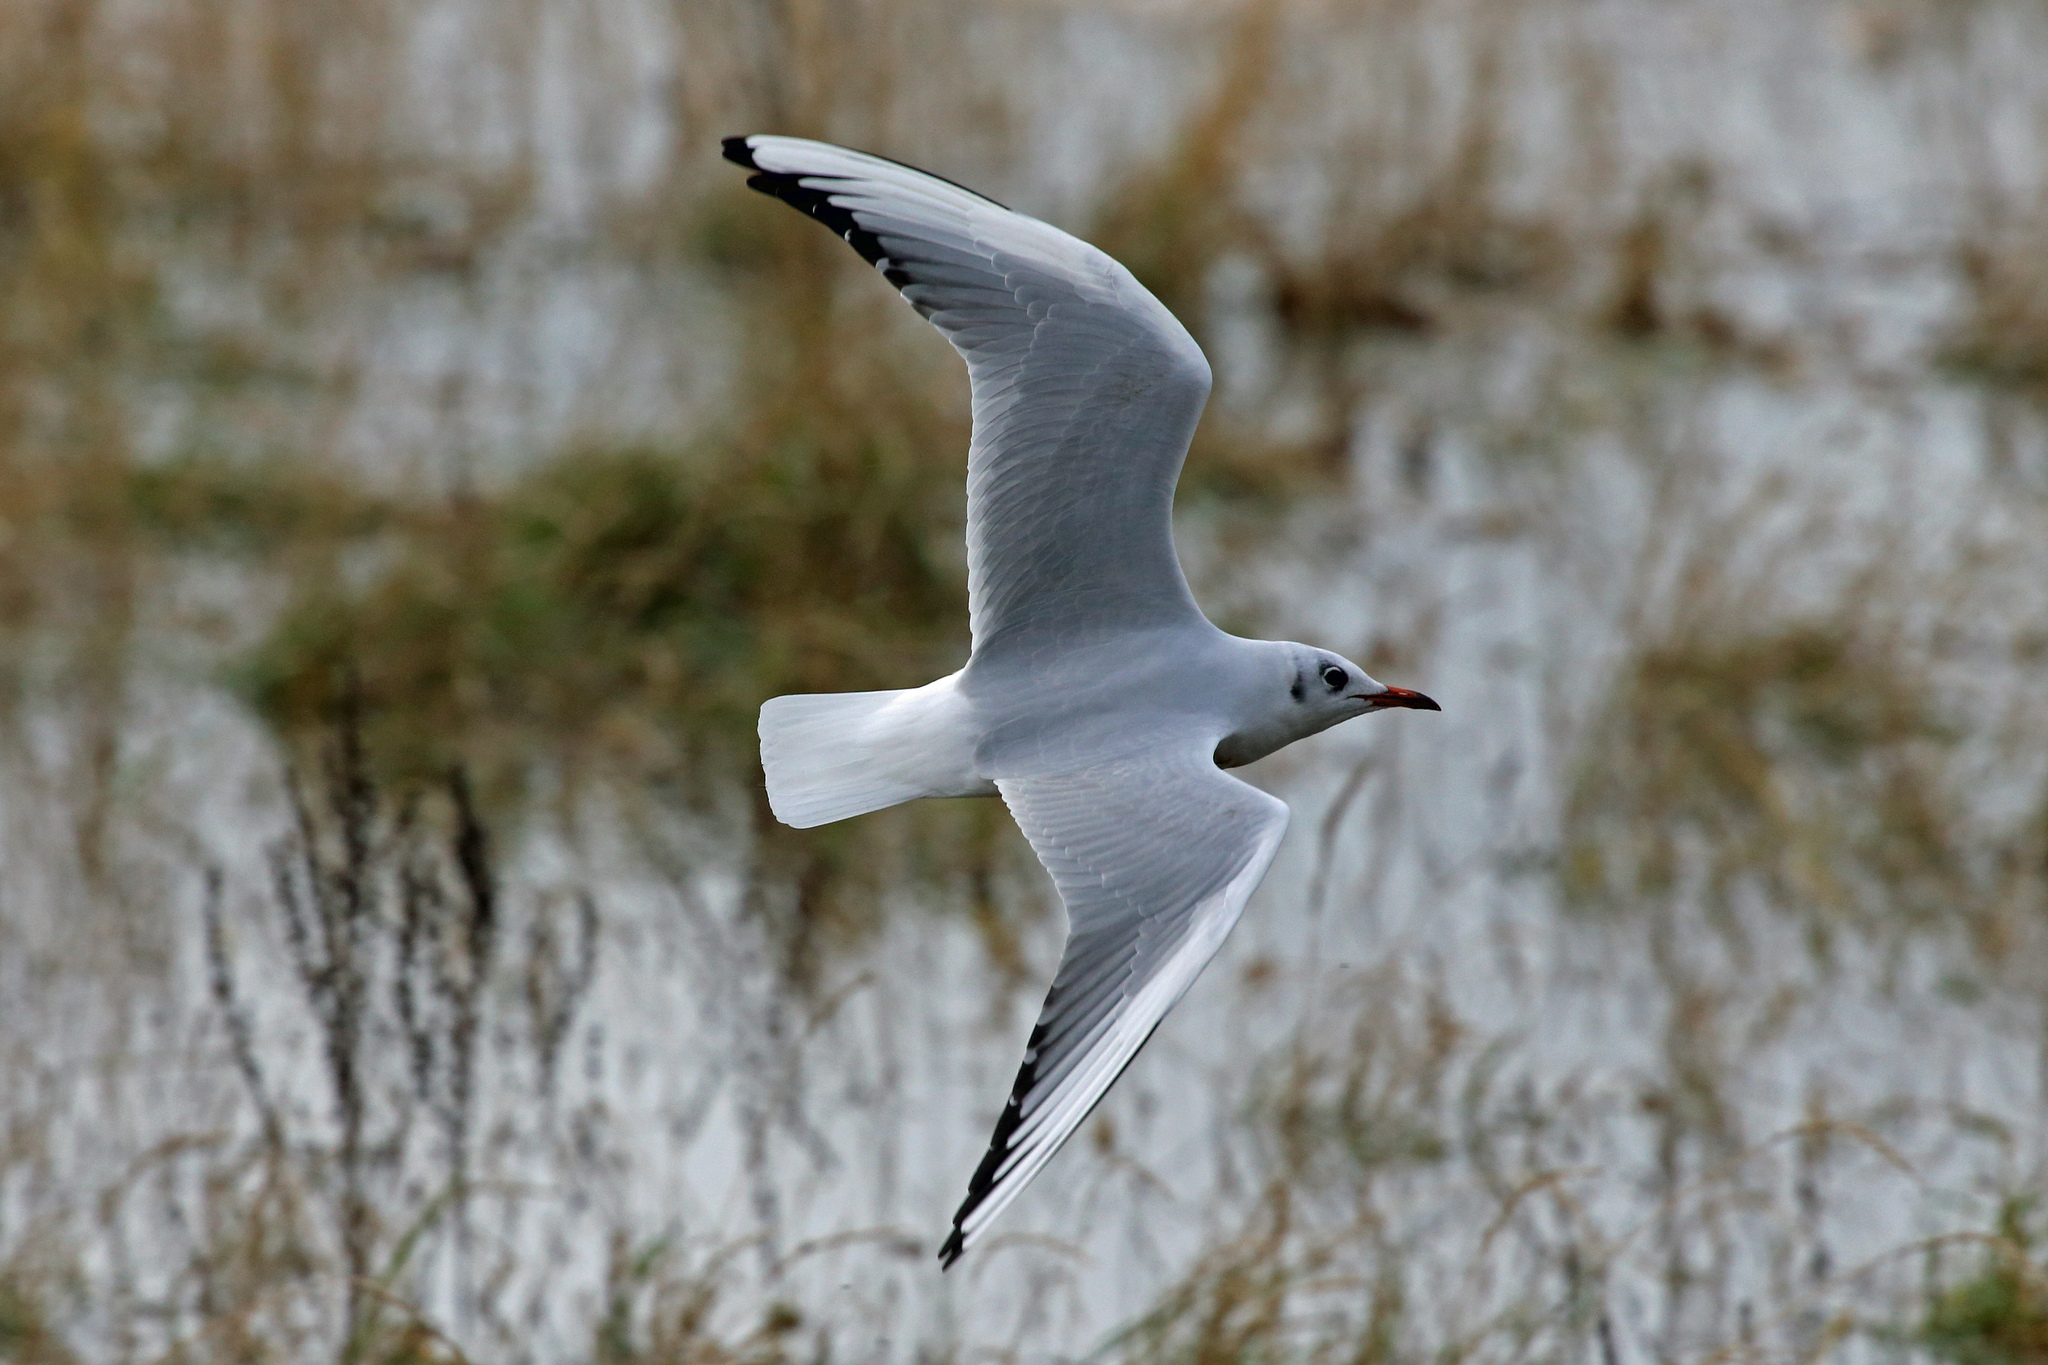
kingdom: Animalia
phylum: Chordata
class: Aves
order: Charadriiformes
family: Laridae
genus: Chroicocephalus
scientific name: Chroicocephalus ridibundus
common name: Black-headed gull
